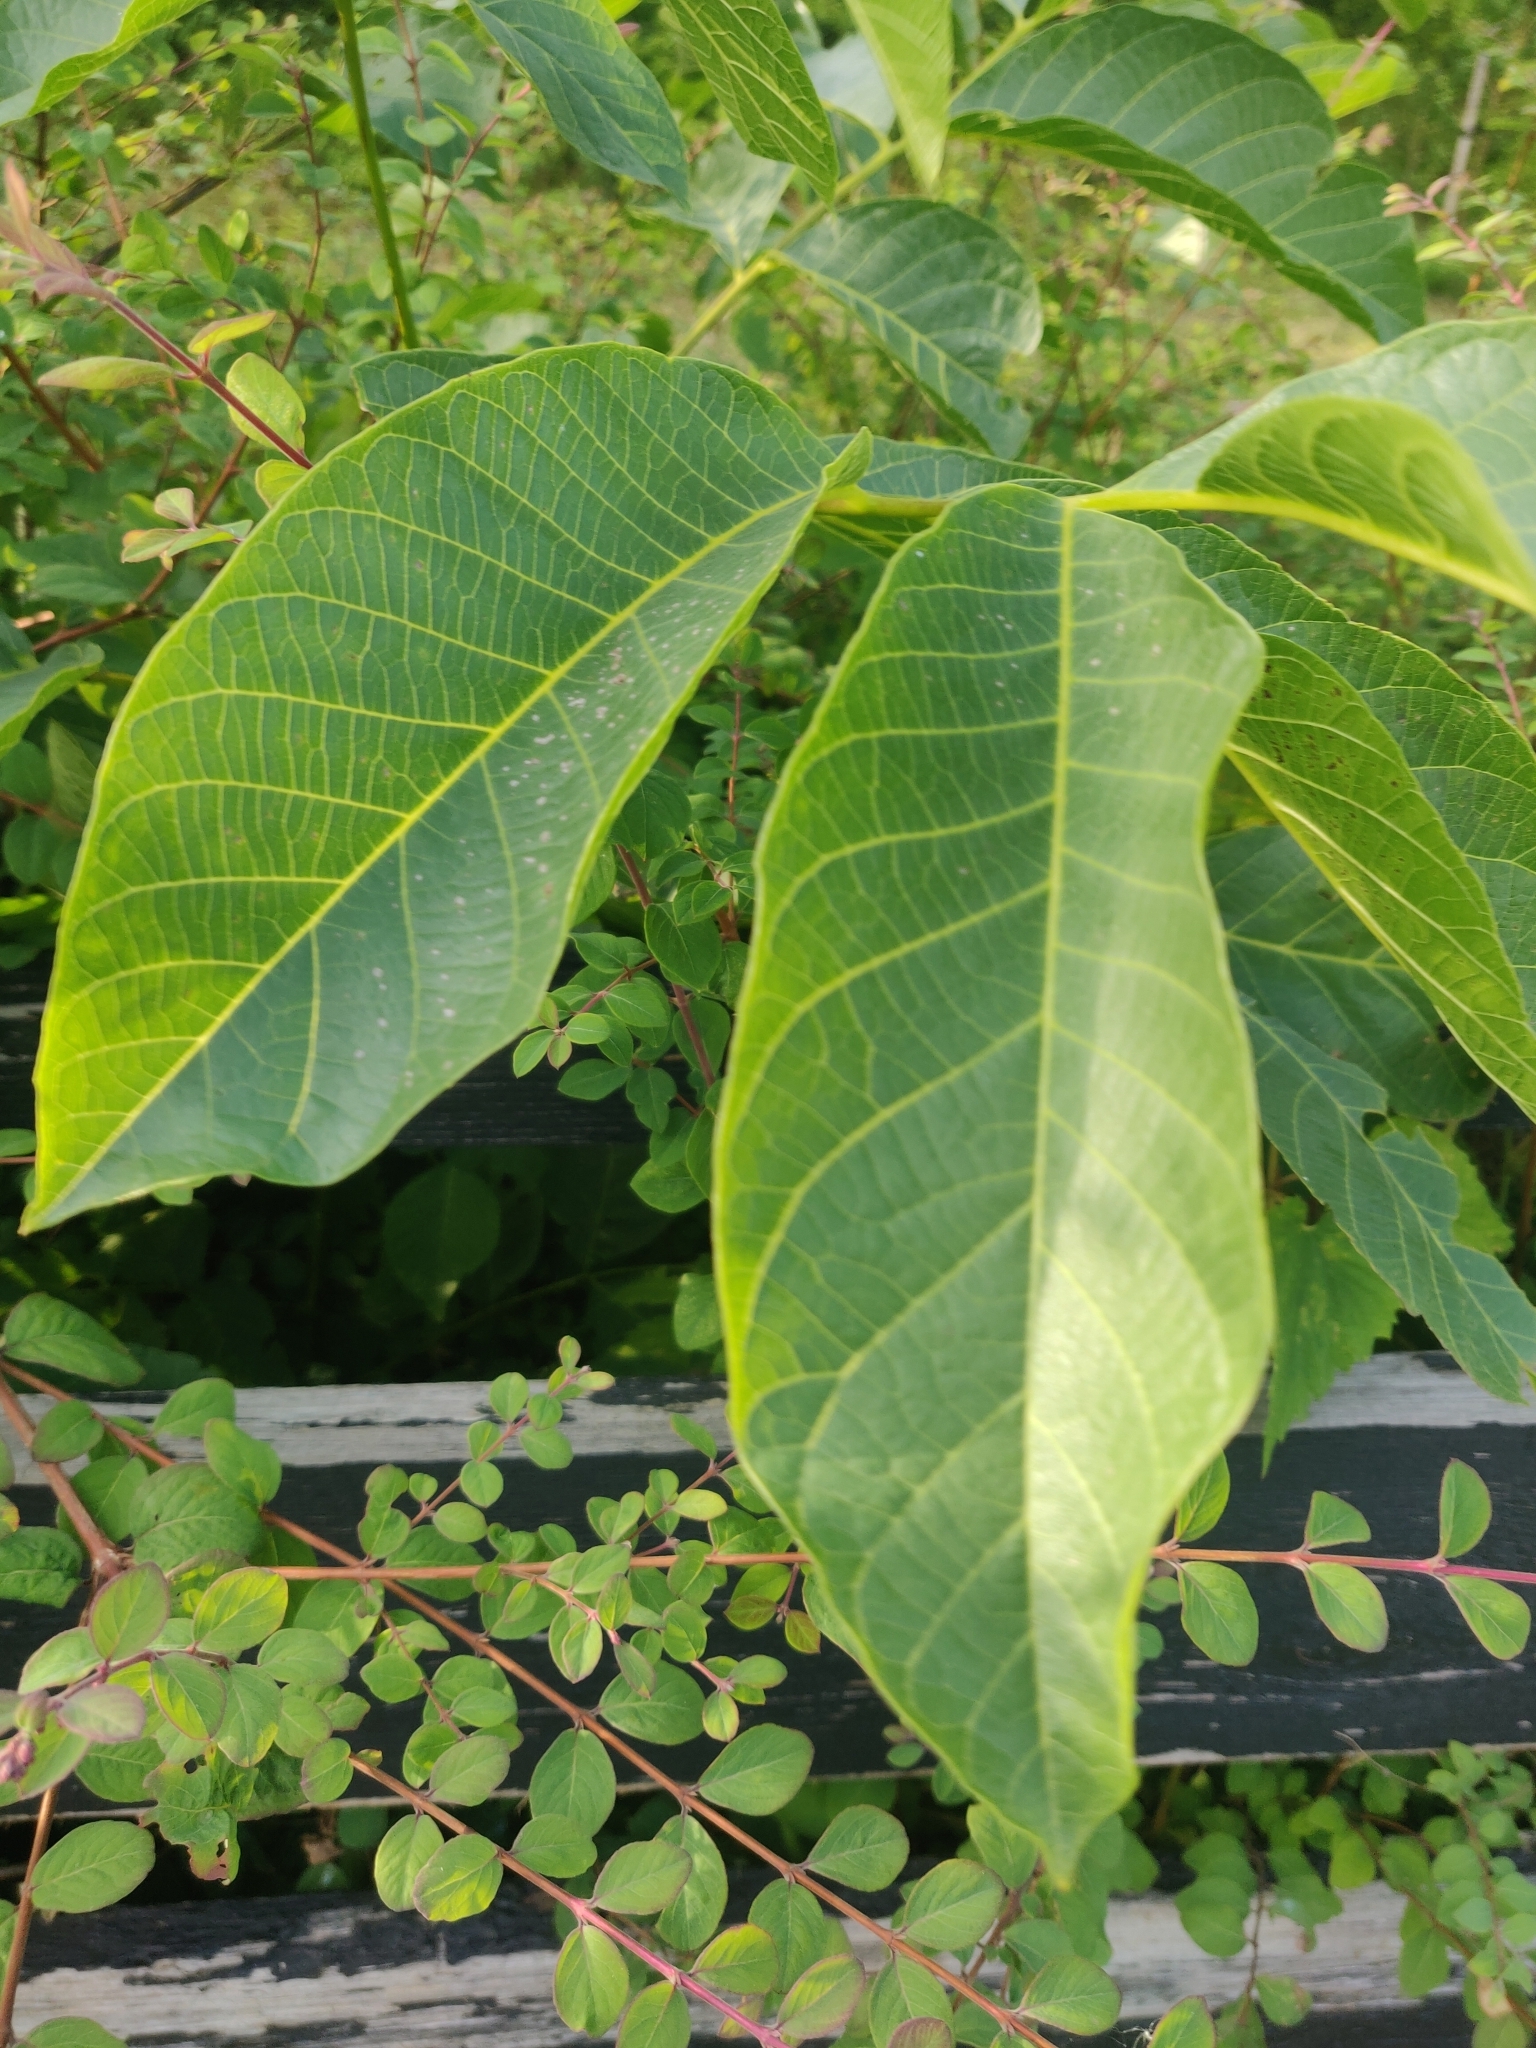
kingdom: Plantae
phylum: Tracheophyta
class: Magnoliopsida
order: Fagales
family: Juglandaceae
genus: Juglans
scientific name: Juglans regia
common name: Walnut
